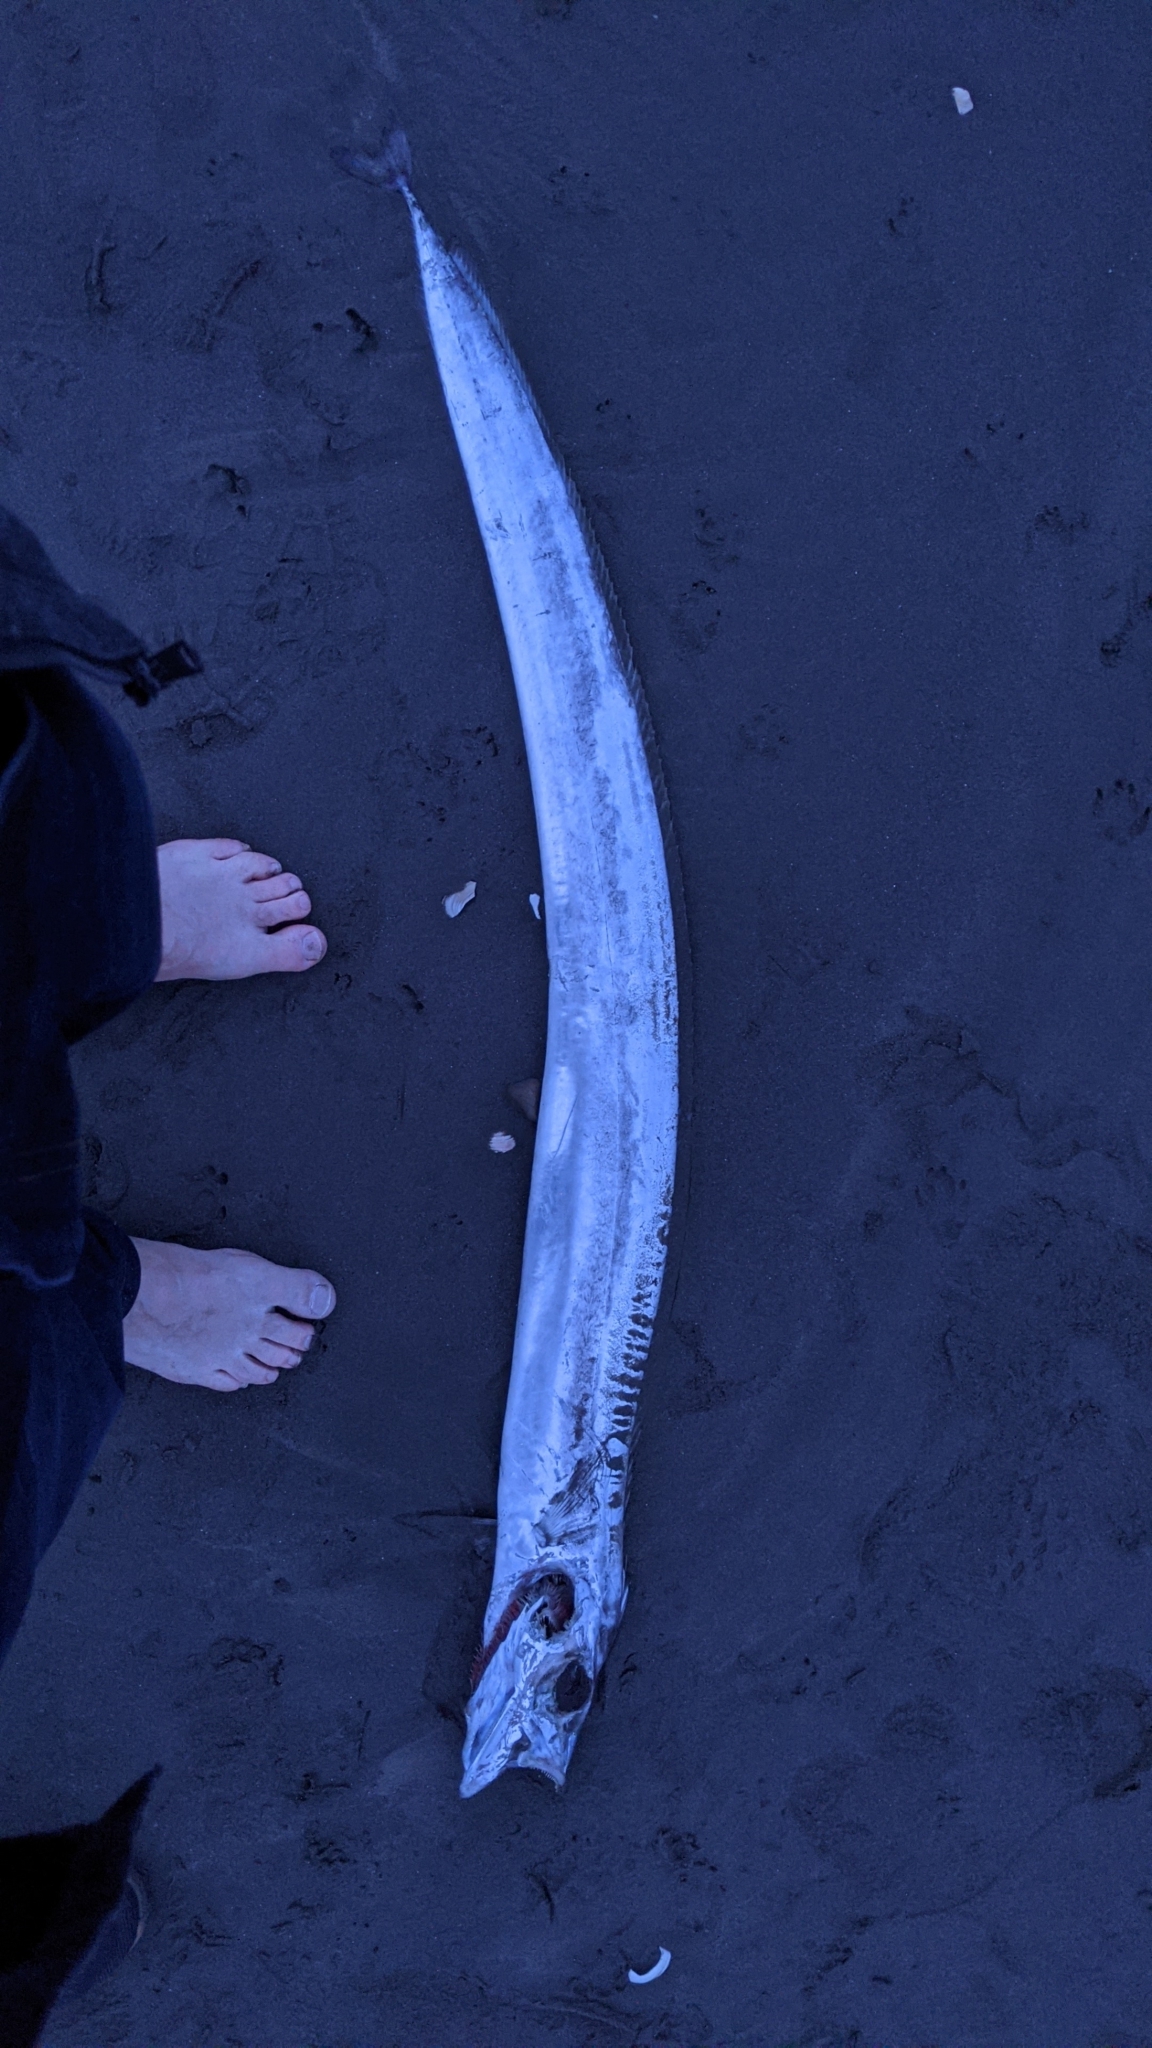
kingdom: Animalia
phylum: Chordata
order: Perciformes
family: Trichiuridae
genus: Lepidopus
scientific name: Lepidopus caudatus
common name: Silver scabbardfish
